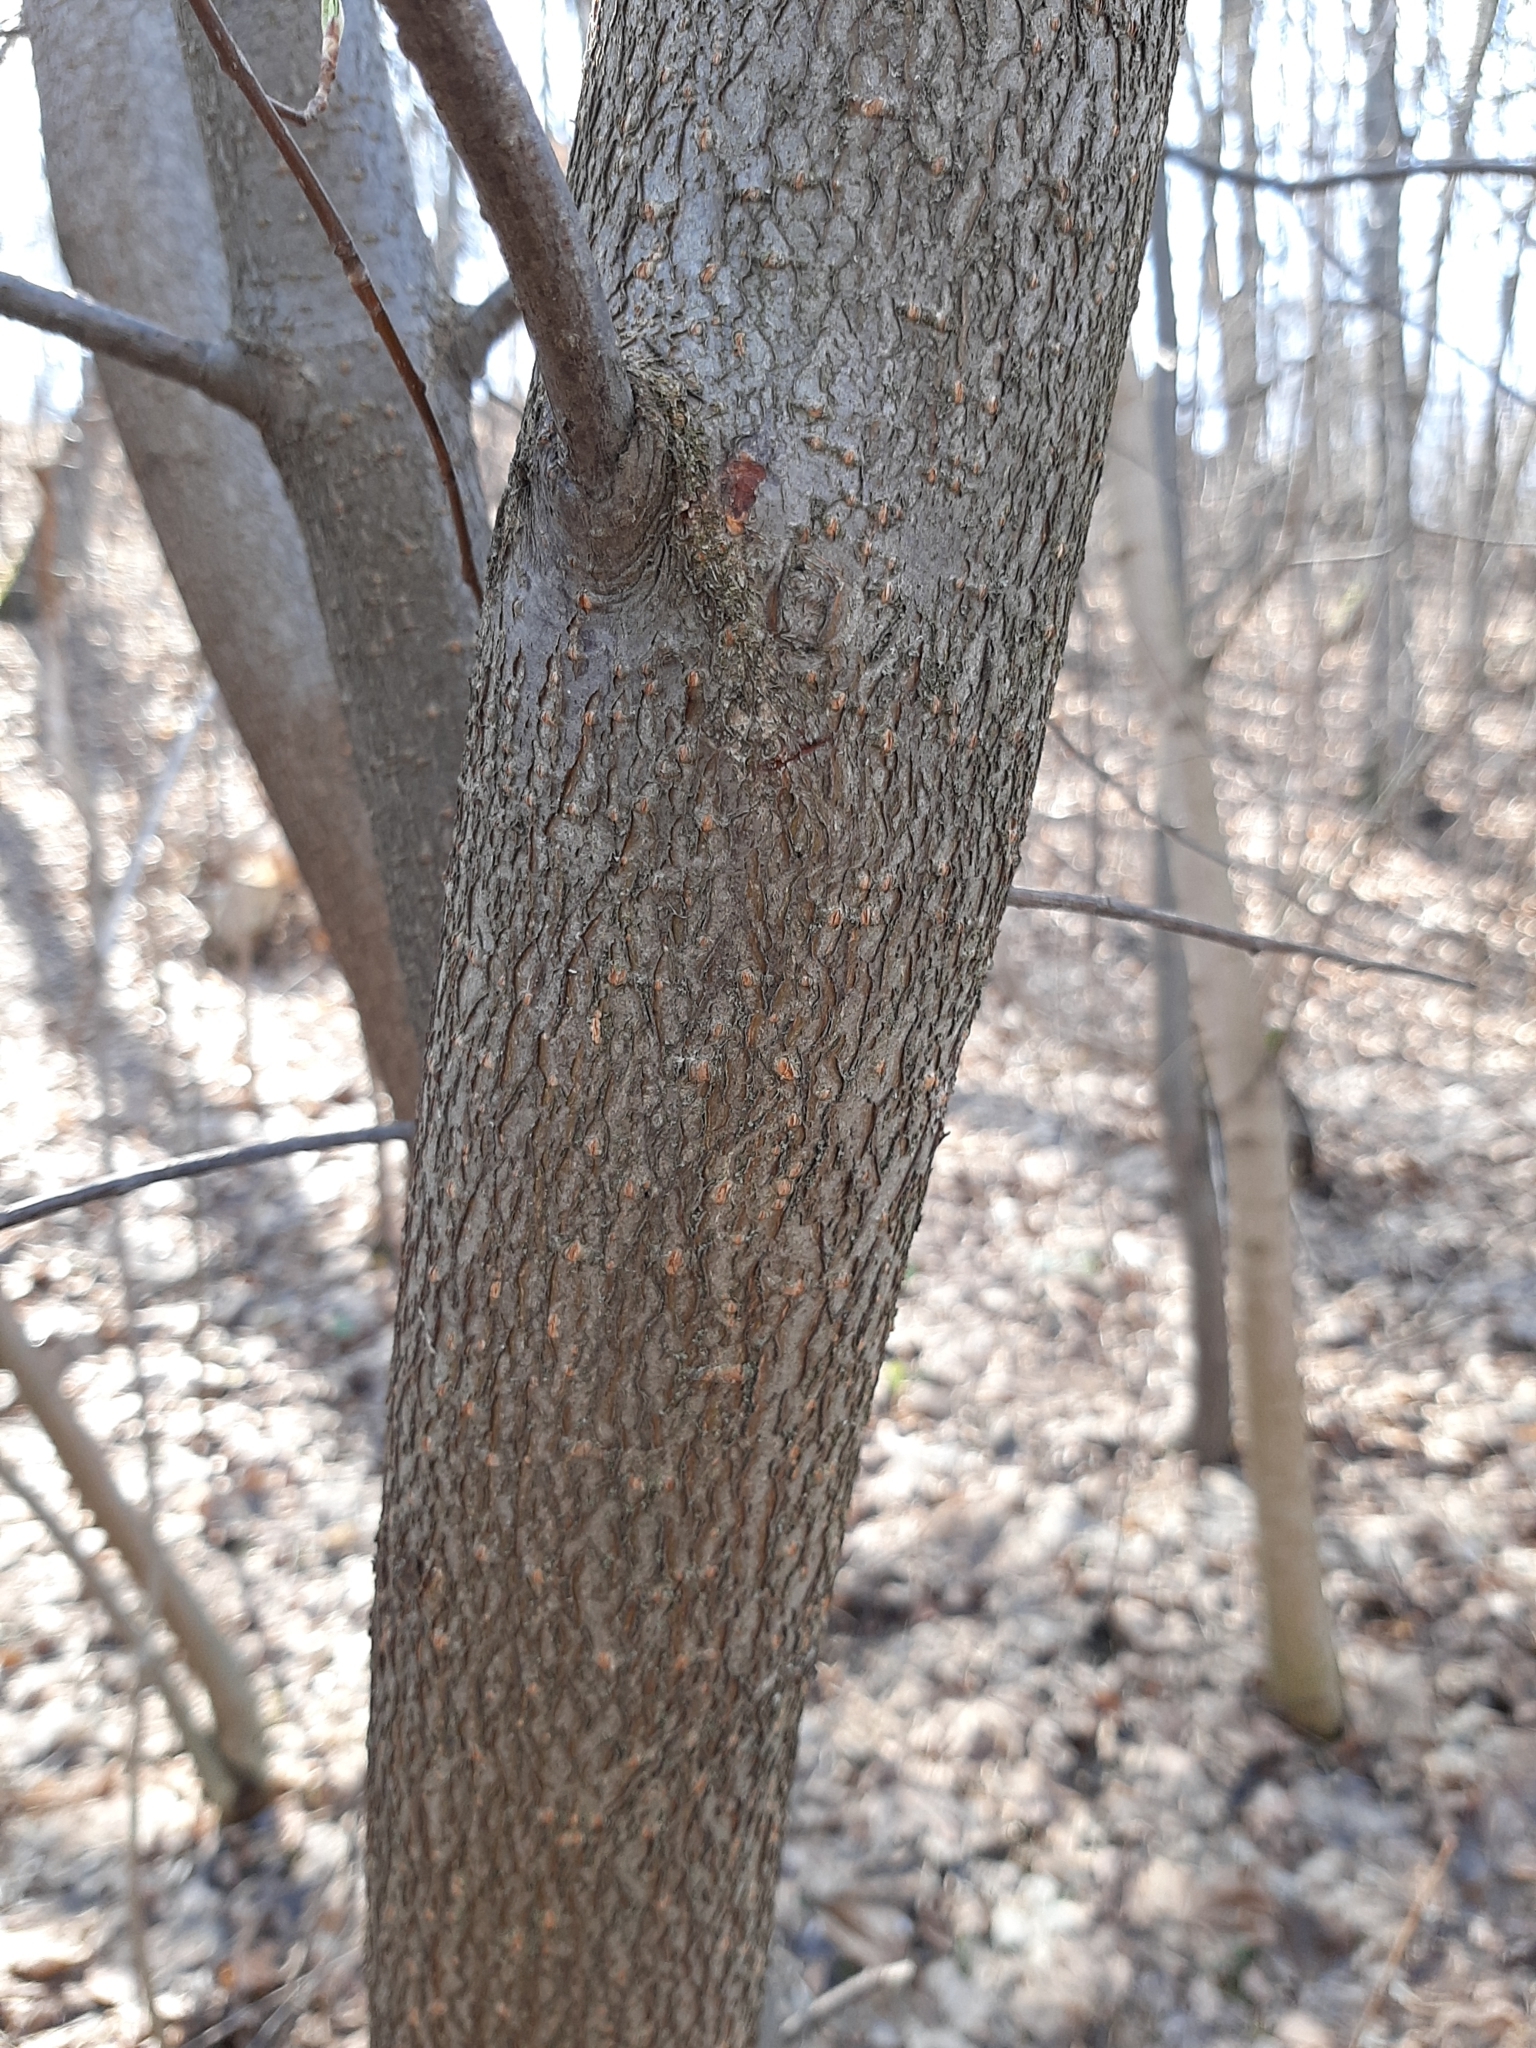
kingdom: Plantae
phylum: Tracheophyta
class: Magnoliopsida
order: Rosales
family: Rosaceae
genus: Prunus
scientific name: Prunus padus
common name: Bird cherry
